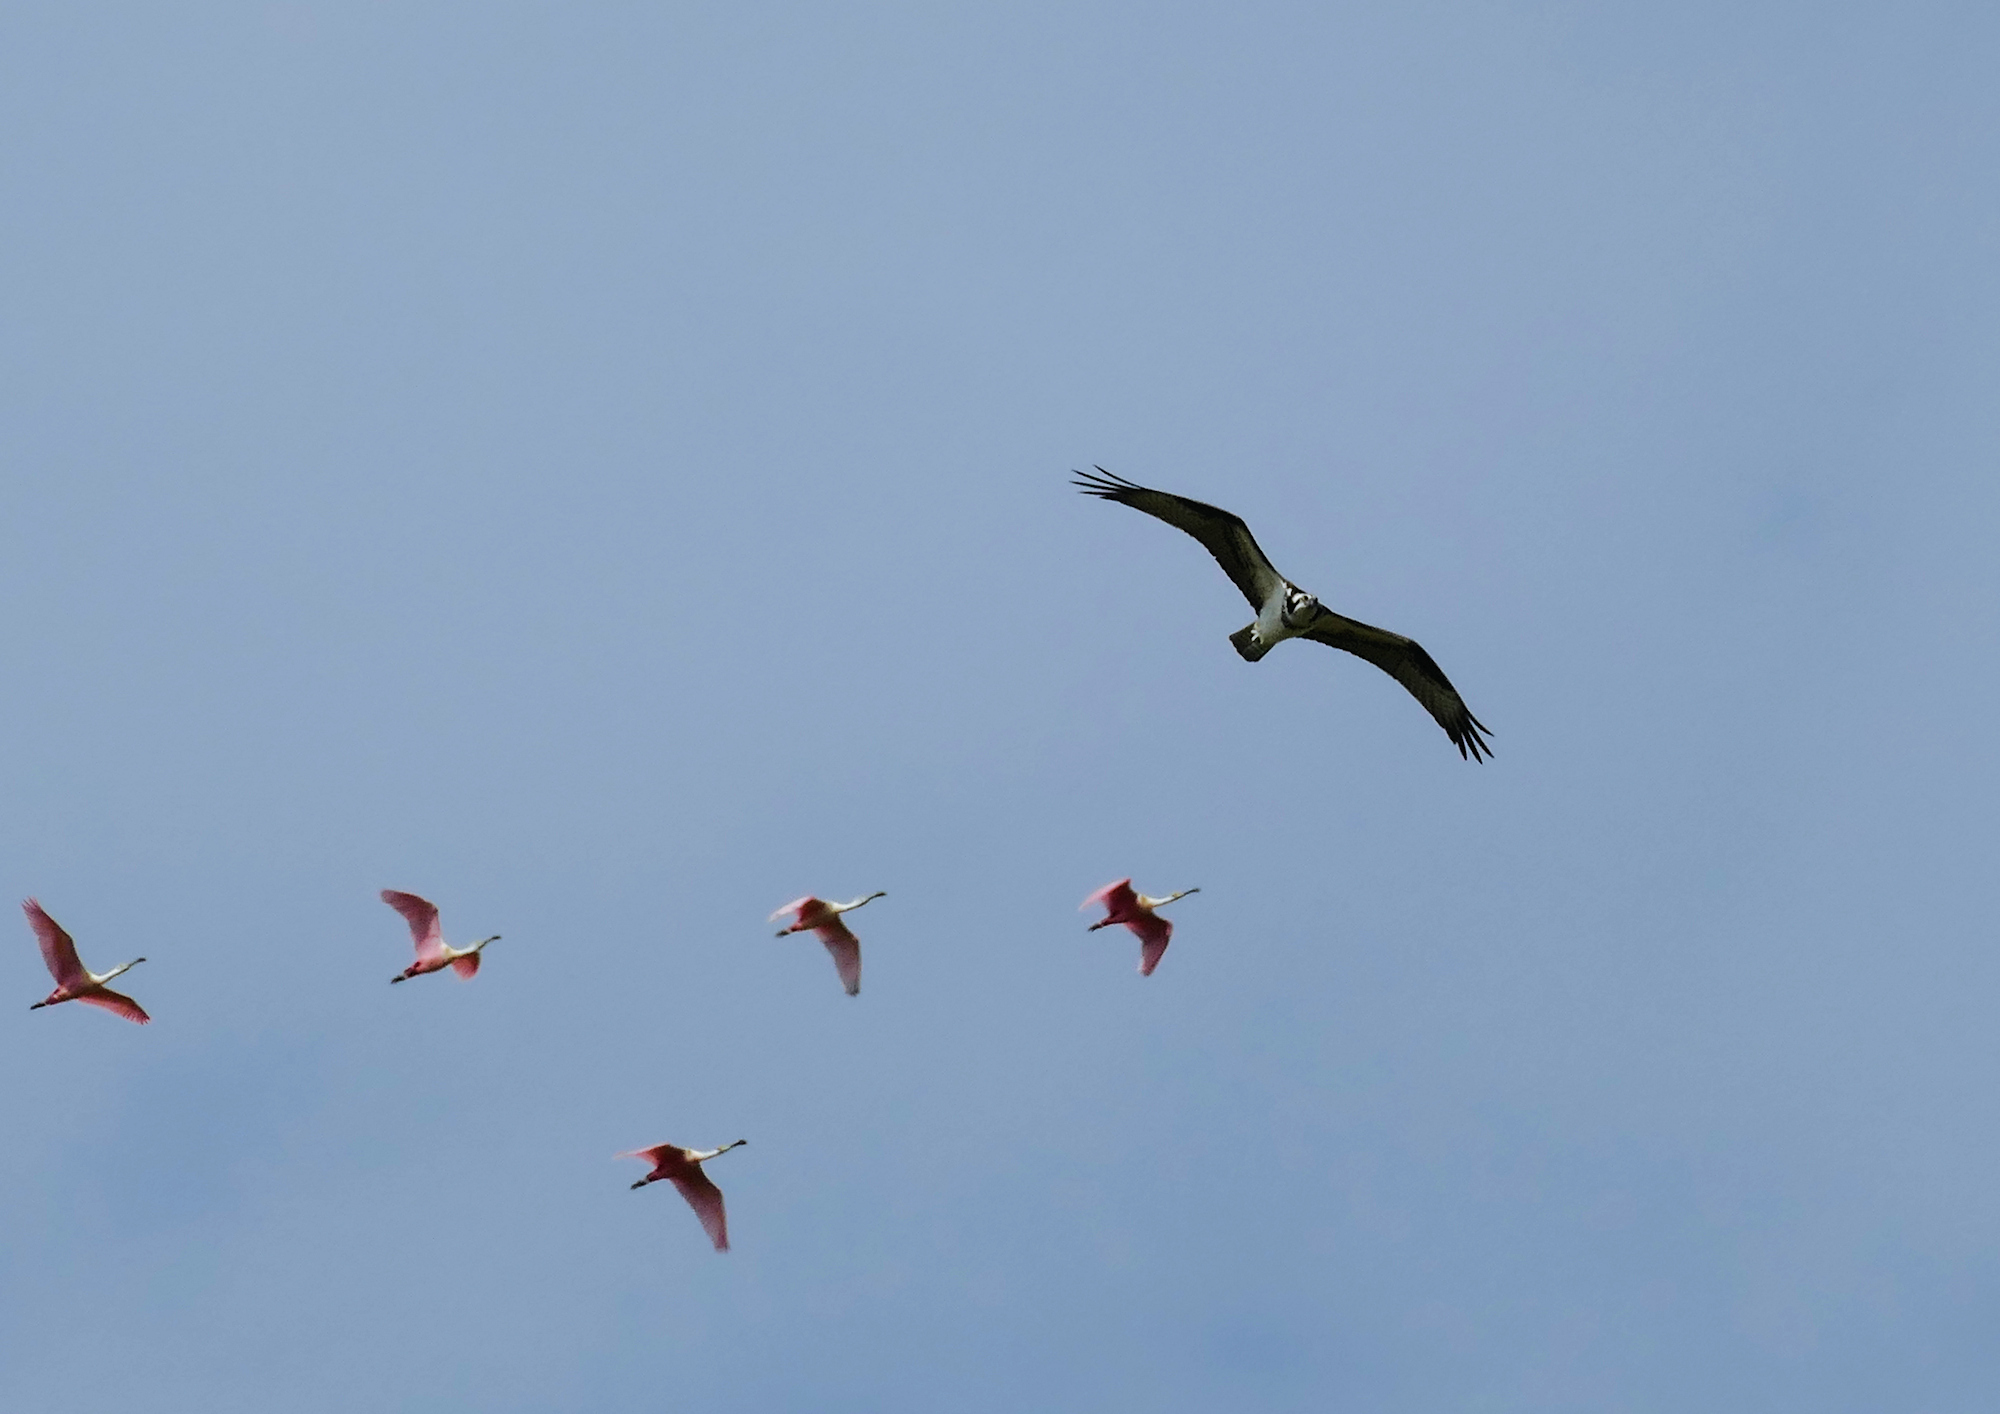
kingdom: Animalia
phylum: Chordata
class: Aves
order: Pelecaniformes
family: Threskiornithidae
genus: Platalea
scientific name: Platalea ajaja
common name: Roseate spoonbill
